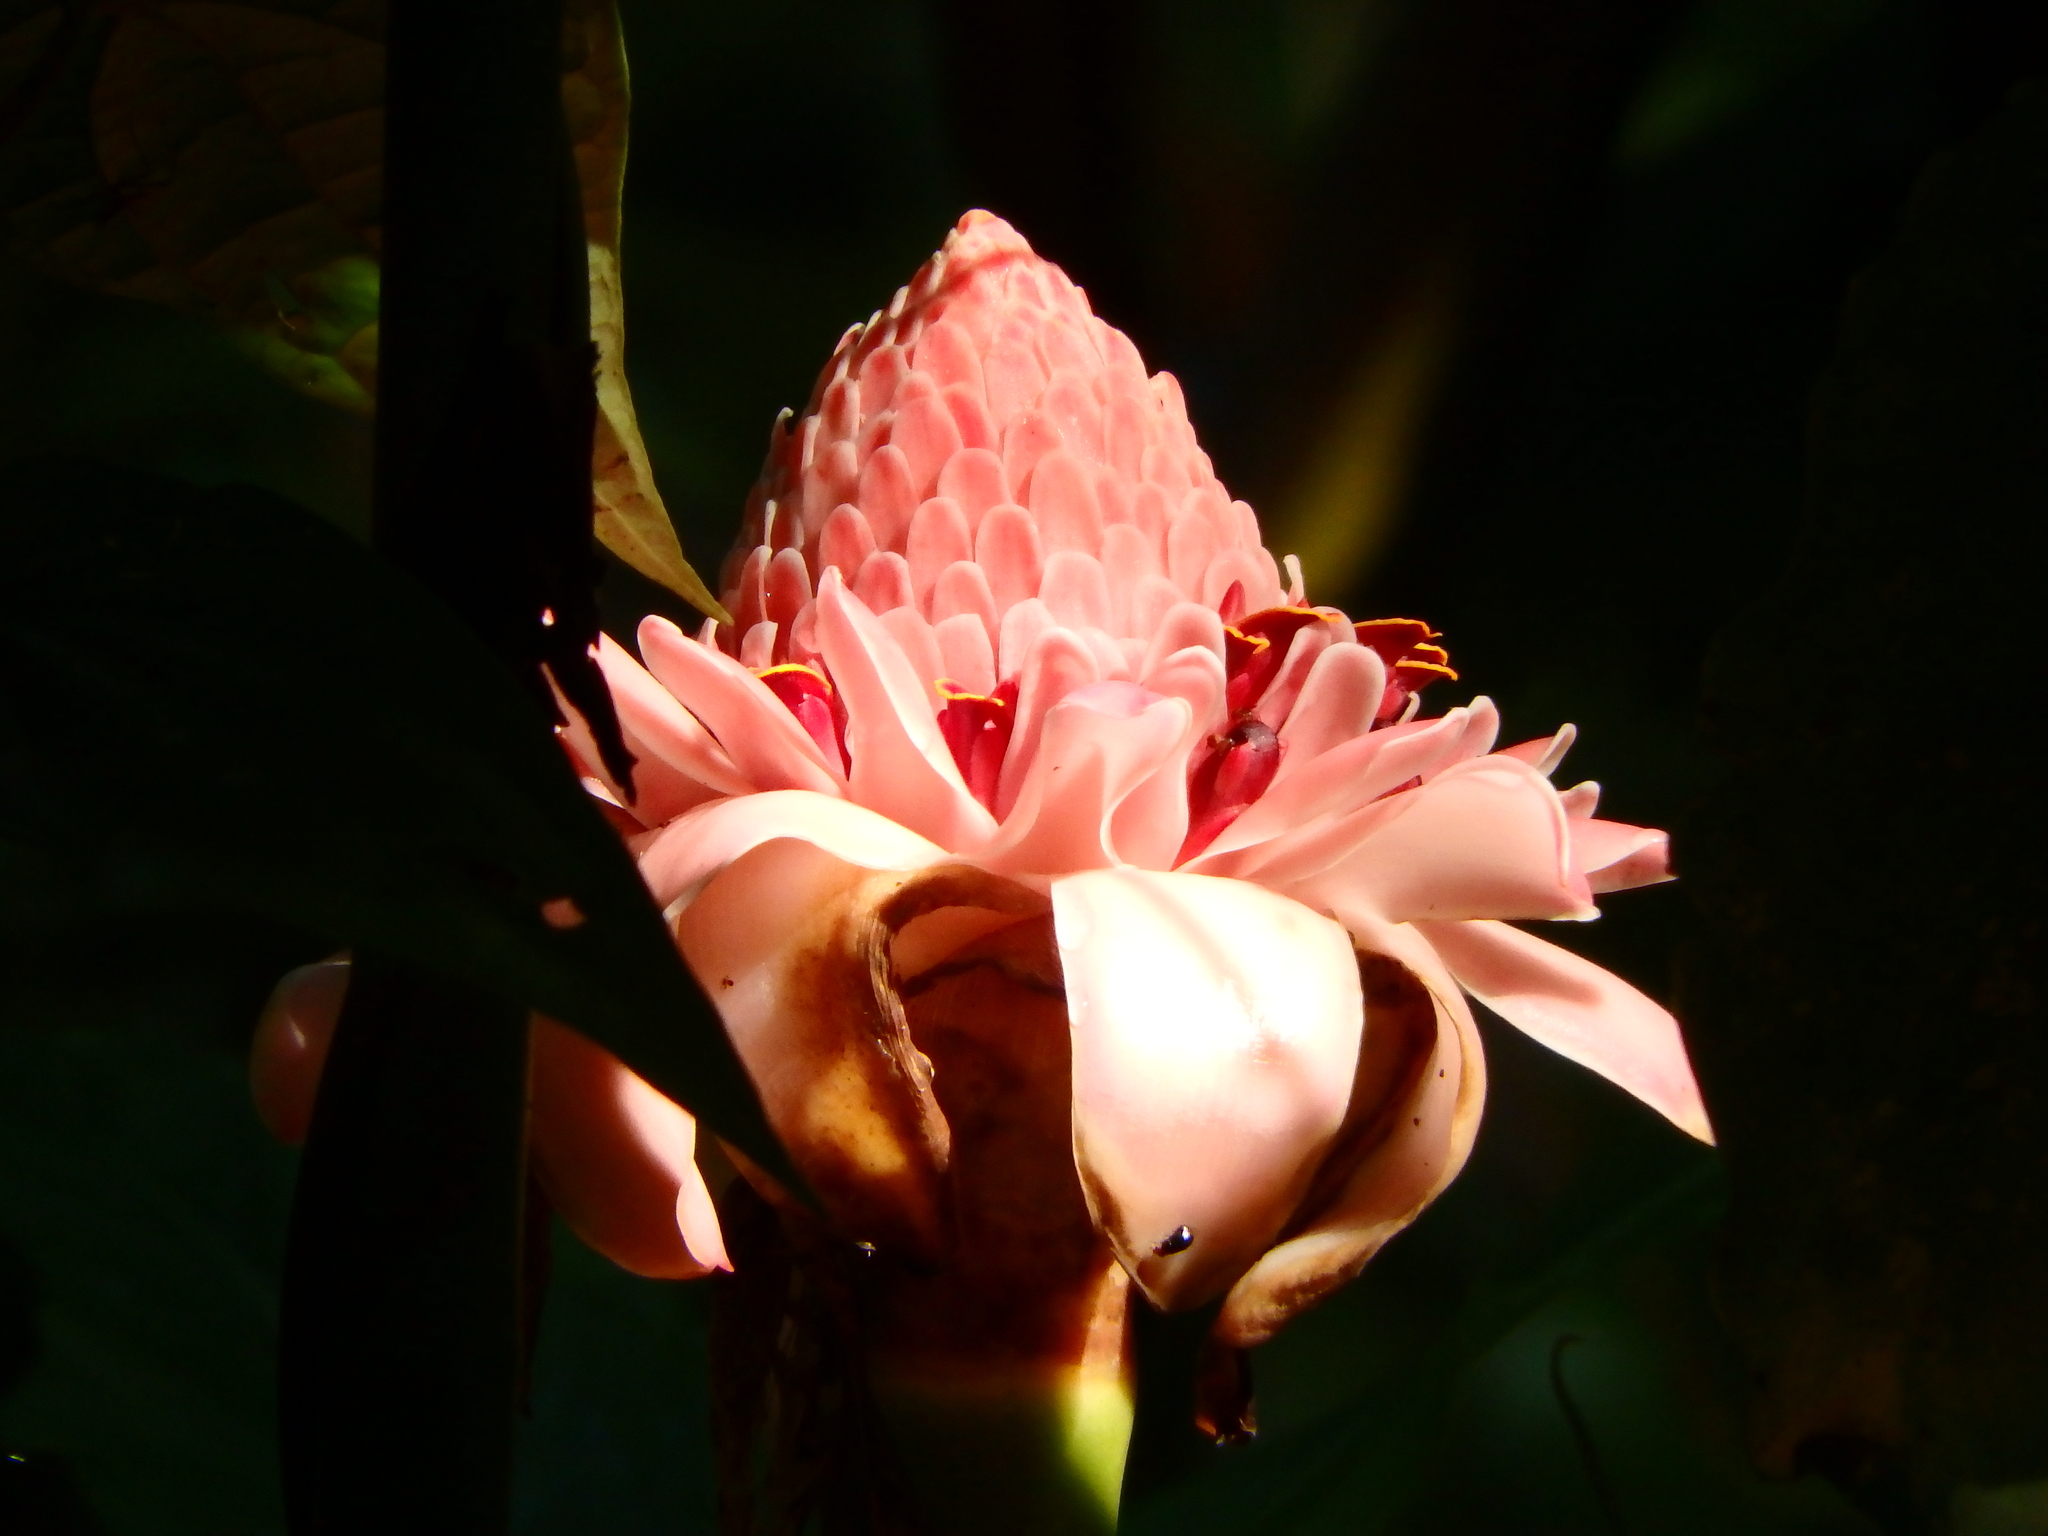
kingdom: Plantae
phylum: Tracheophyta
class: Liliopsida
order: Zingiberales
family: Zingiberaceae
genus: Etlingera
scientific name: Etlingera elatior
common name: Philippine waxflower
